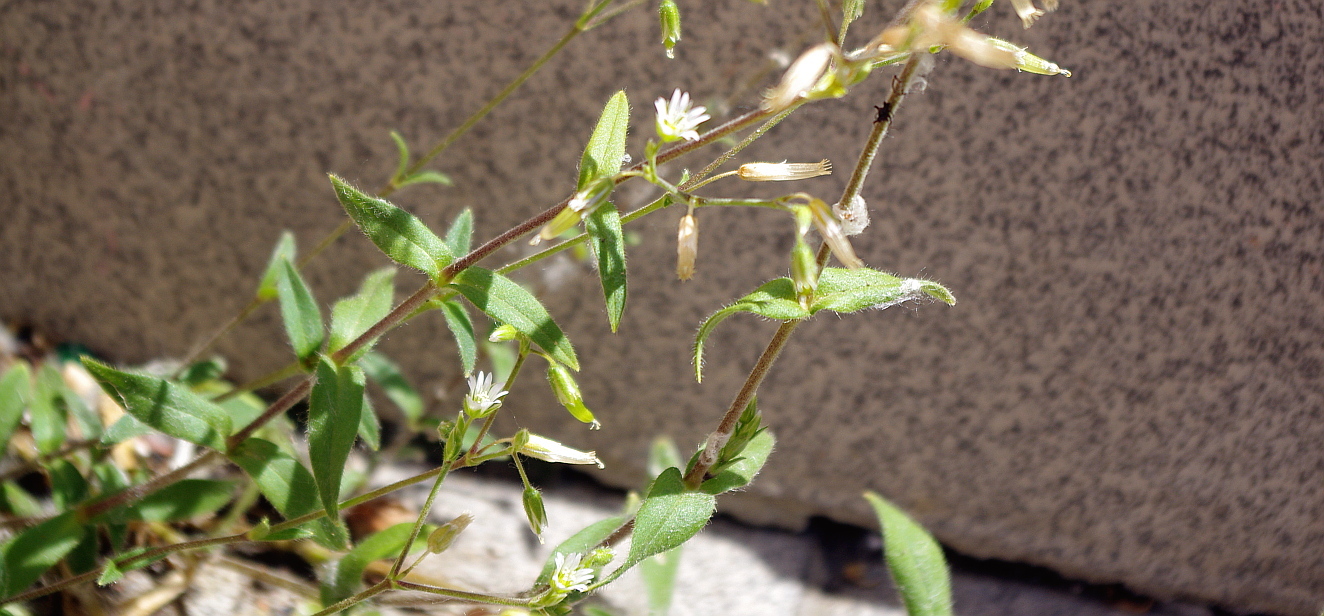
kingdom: Plantae
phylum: Tracheophyta
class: Magnoliopsida
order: Caryophyllales
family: Caryophyllaceae
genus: Cerastium
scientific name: Cerastium holosteoides
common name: Big chickweed
